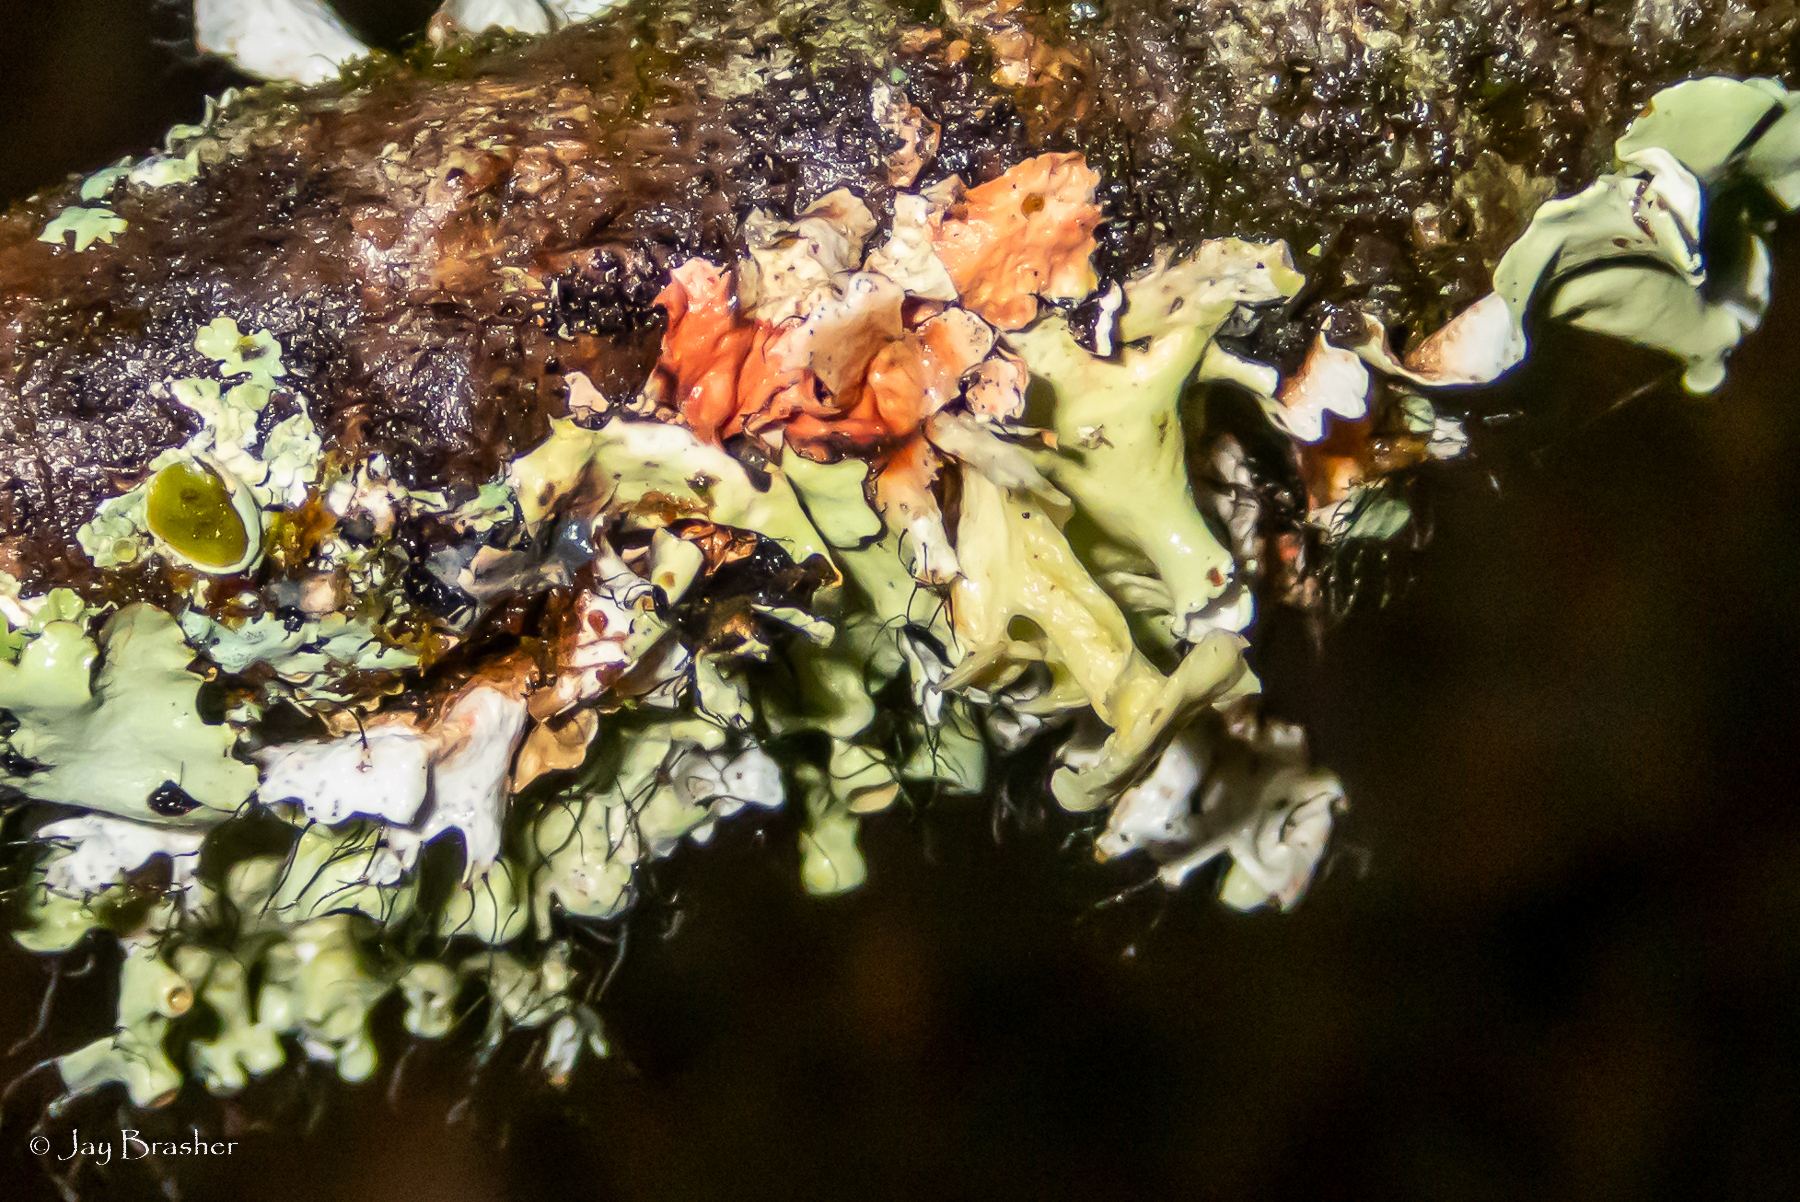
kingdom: Fungi
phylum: Ascomycota
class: Lecanoromycetes
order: Lecanorales
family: Parmeliaceae
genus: Parmotrema
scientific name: Parmotrema perforatum
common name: Perforated ruffle lichen
